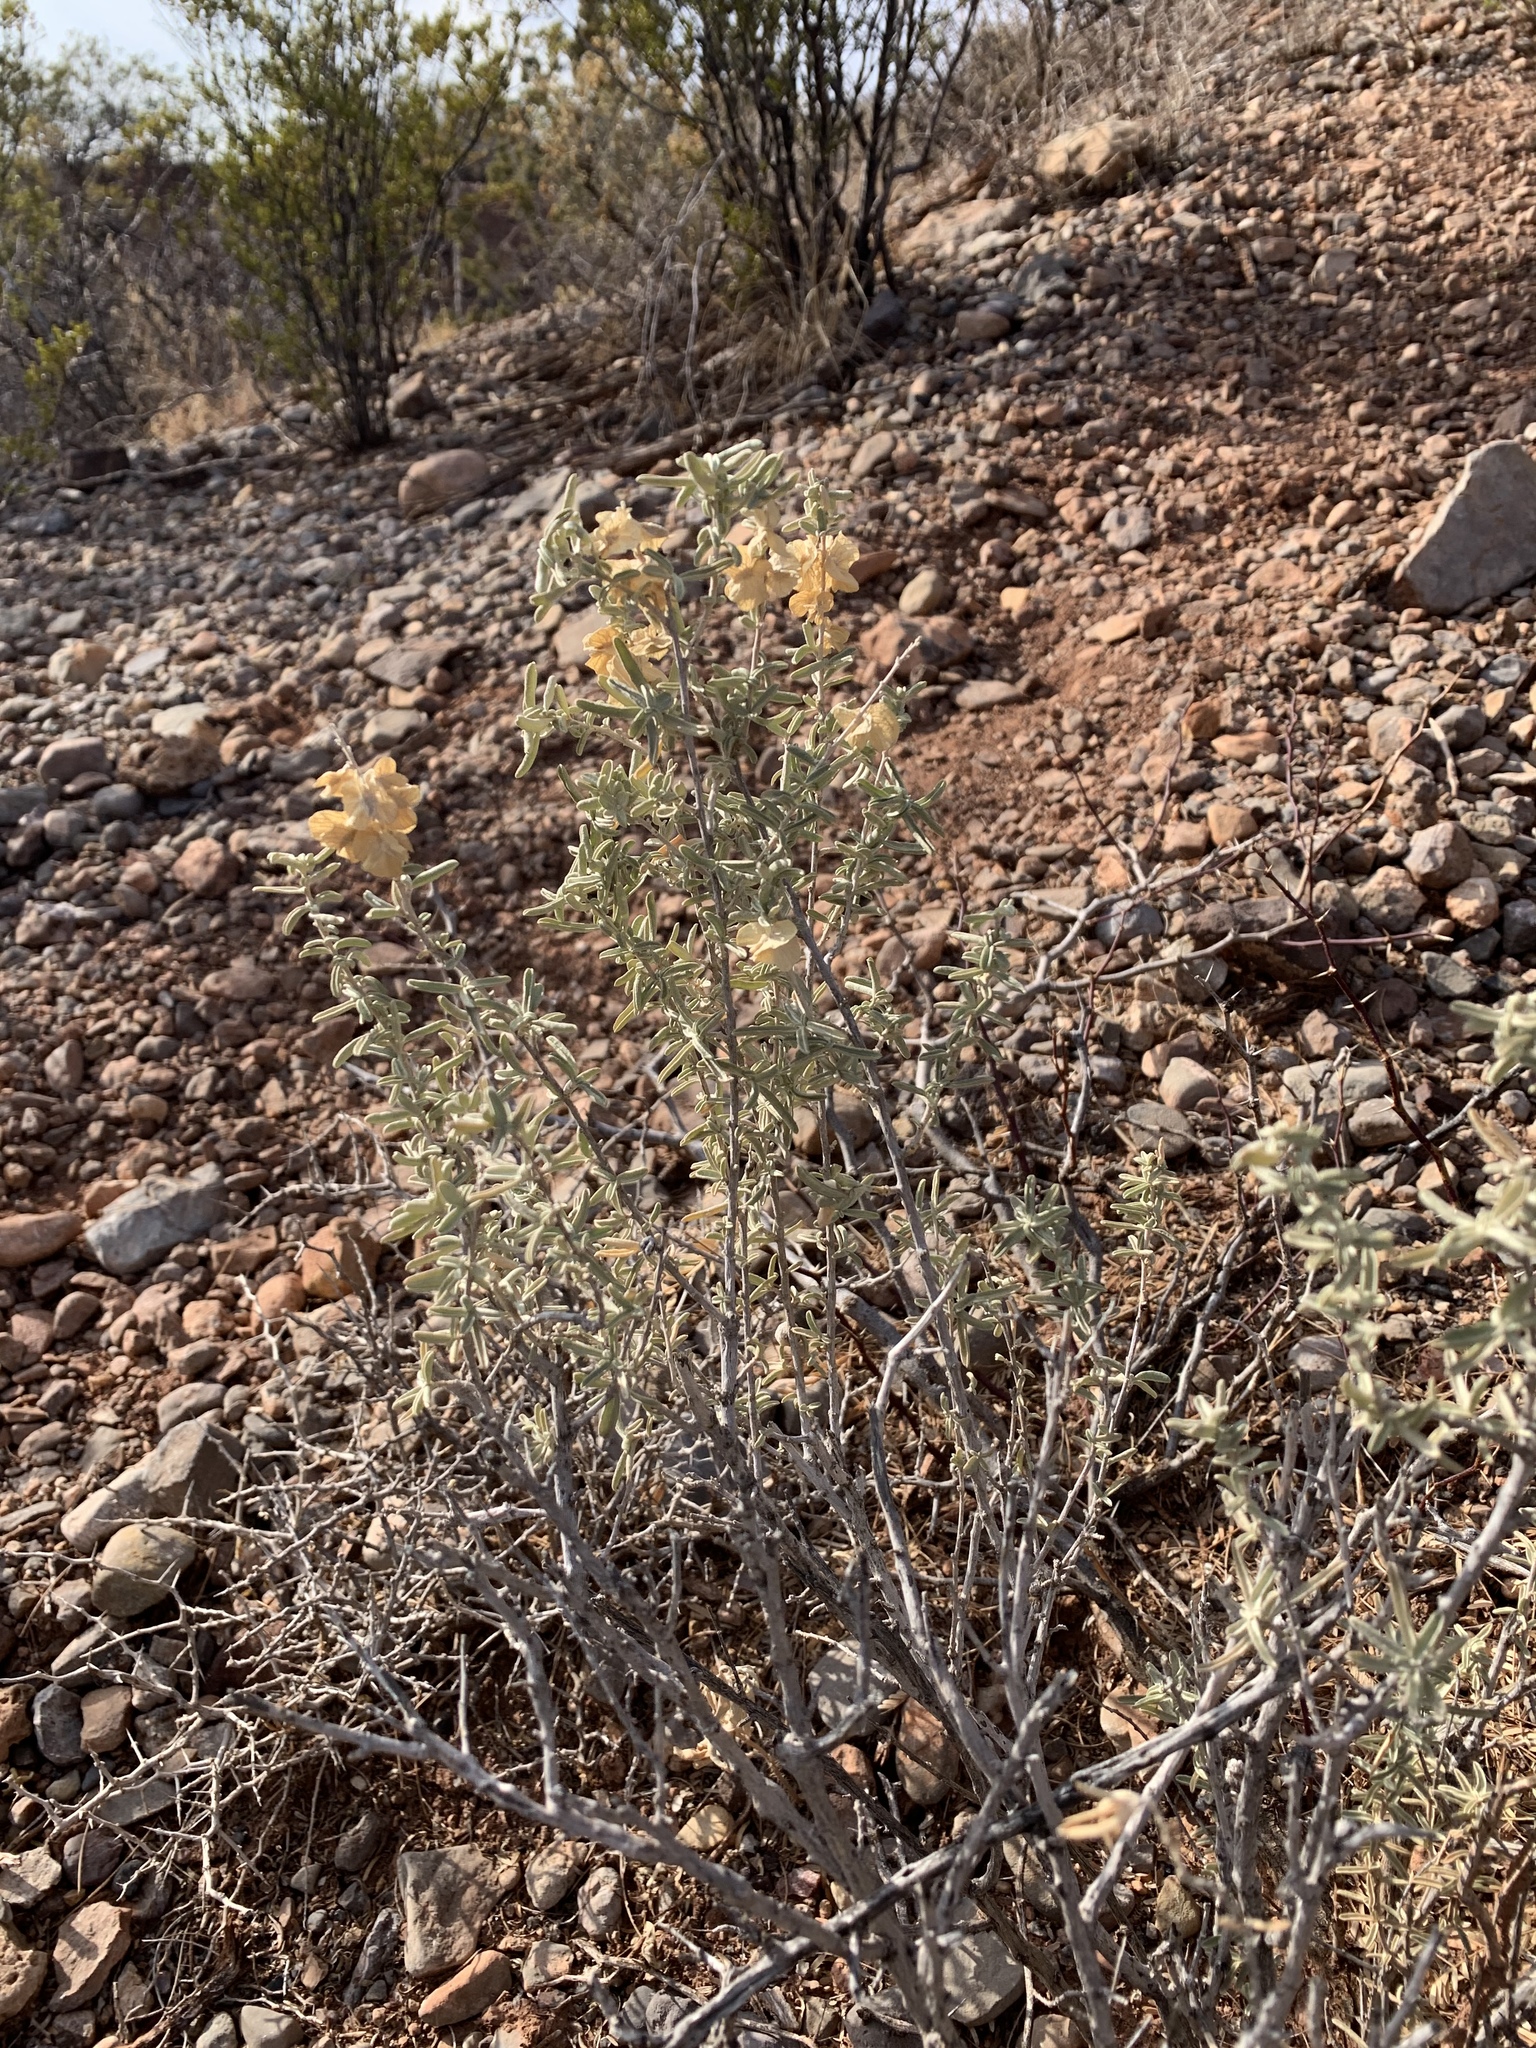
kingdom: Plantae
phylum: Tracheophyta
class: Magnoliopsida
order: Caryophyllales
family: Amaranthaceae
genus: Atriplex
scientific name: Atriplex canescens
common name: Four-wing saltbush
